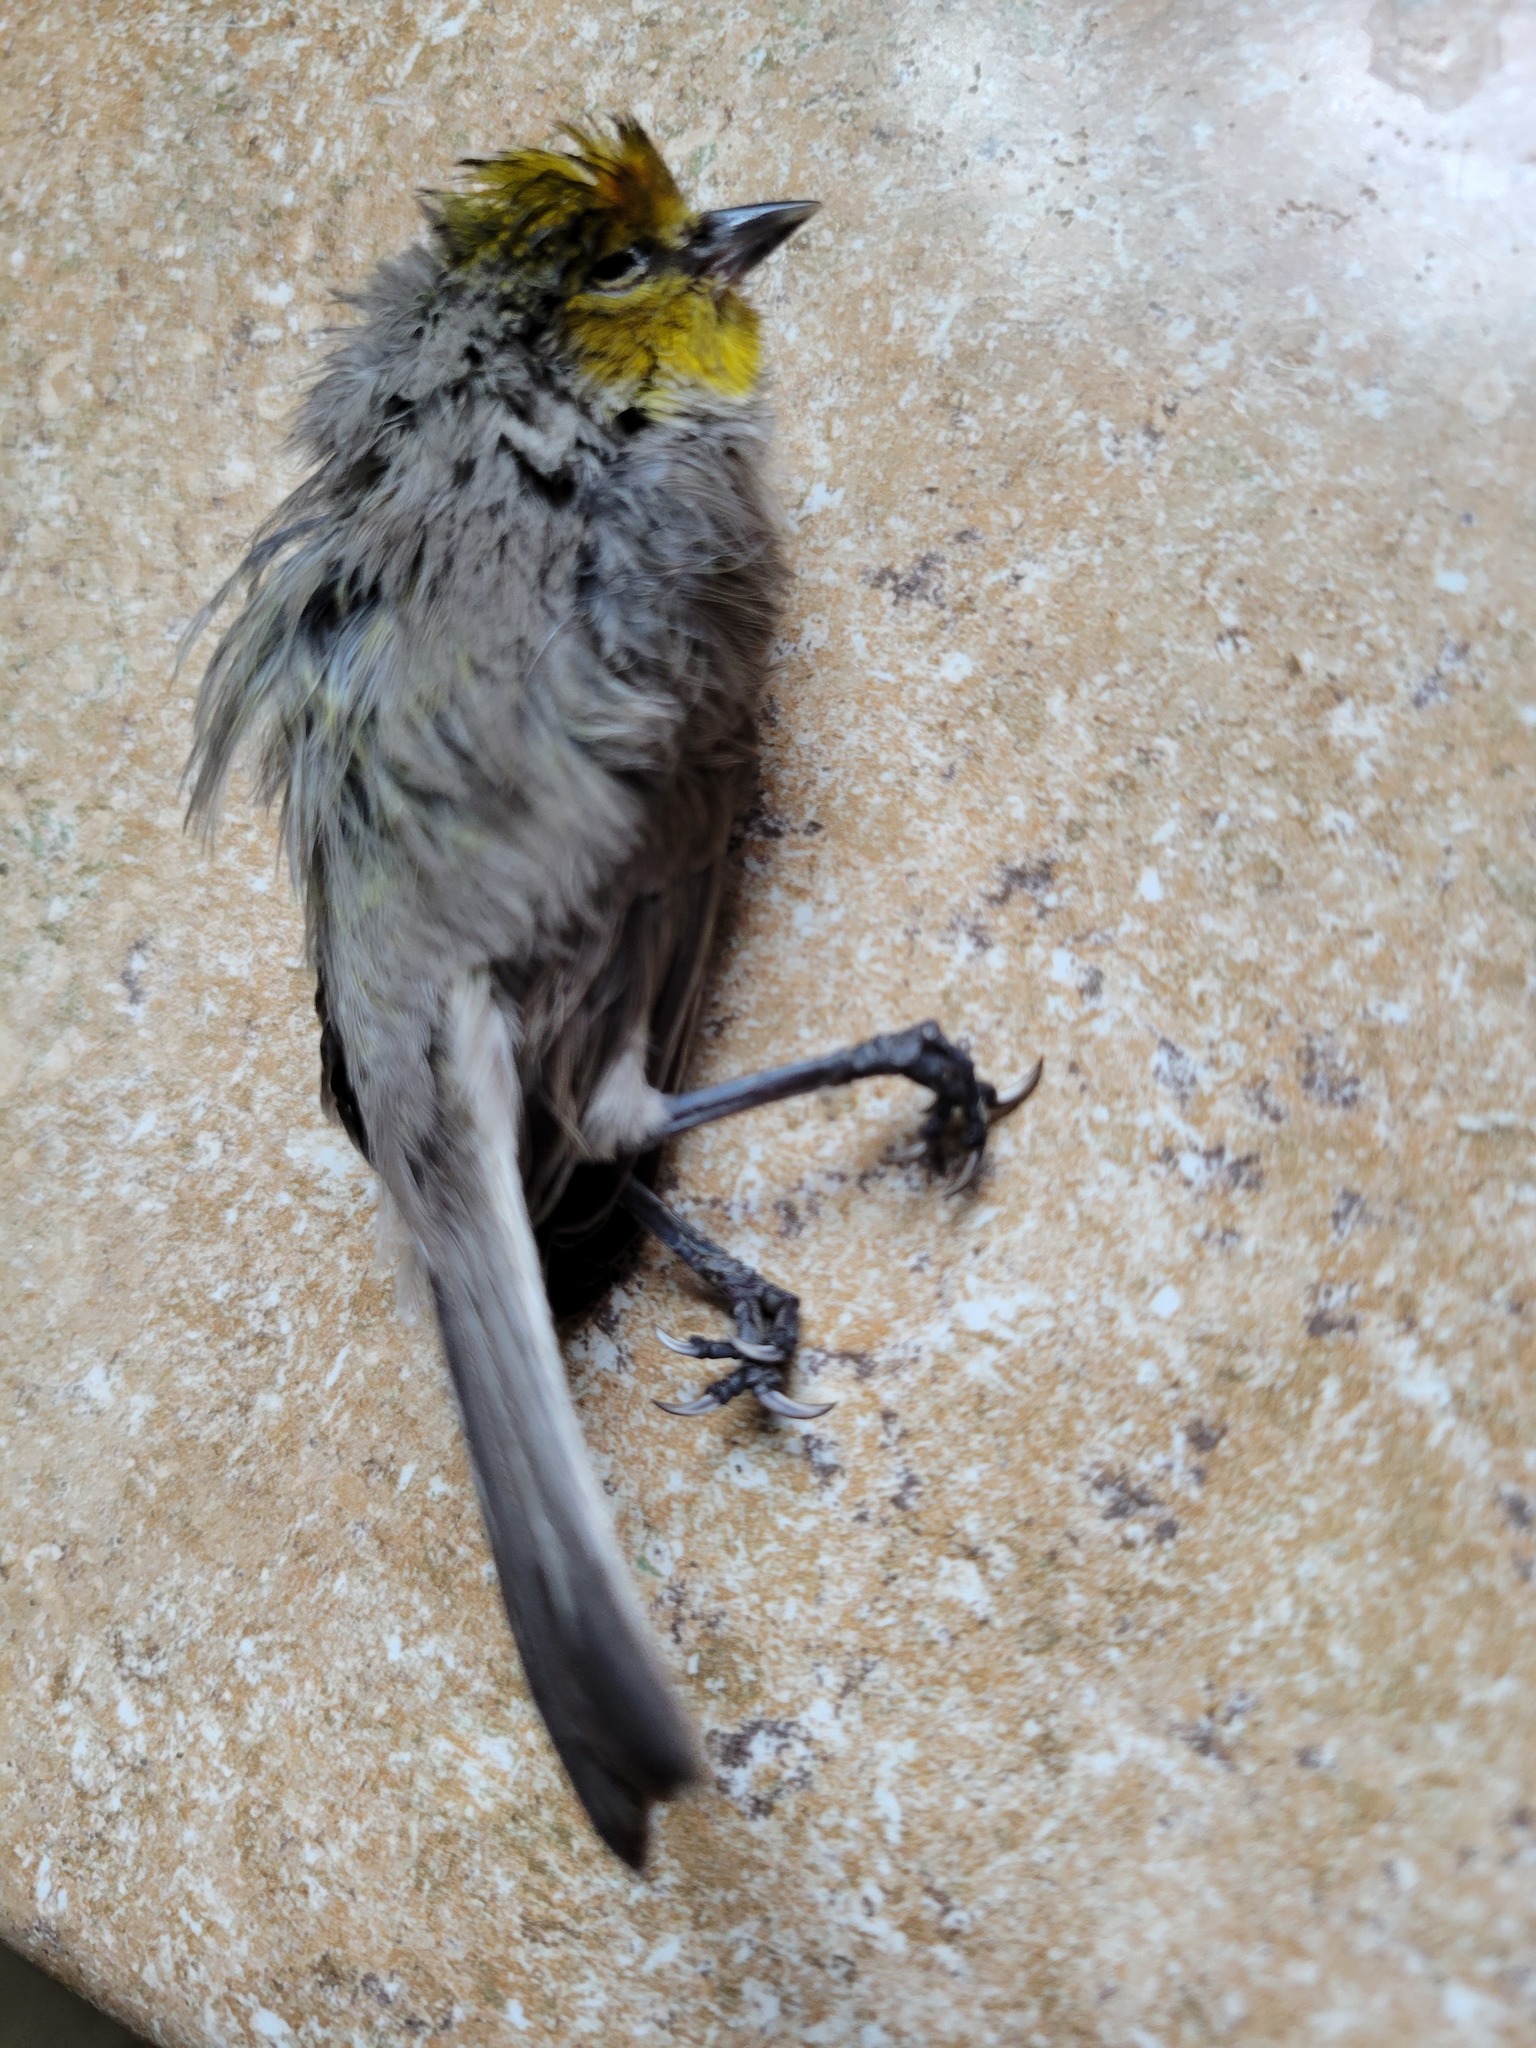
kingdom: Animalia
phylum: Chordata
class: Aves
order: Passeriformes
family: Remizidae
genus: Auriparus
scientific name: Auriparus flaviceps
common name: Verdin
